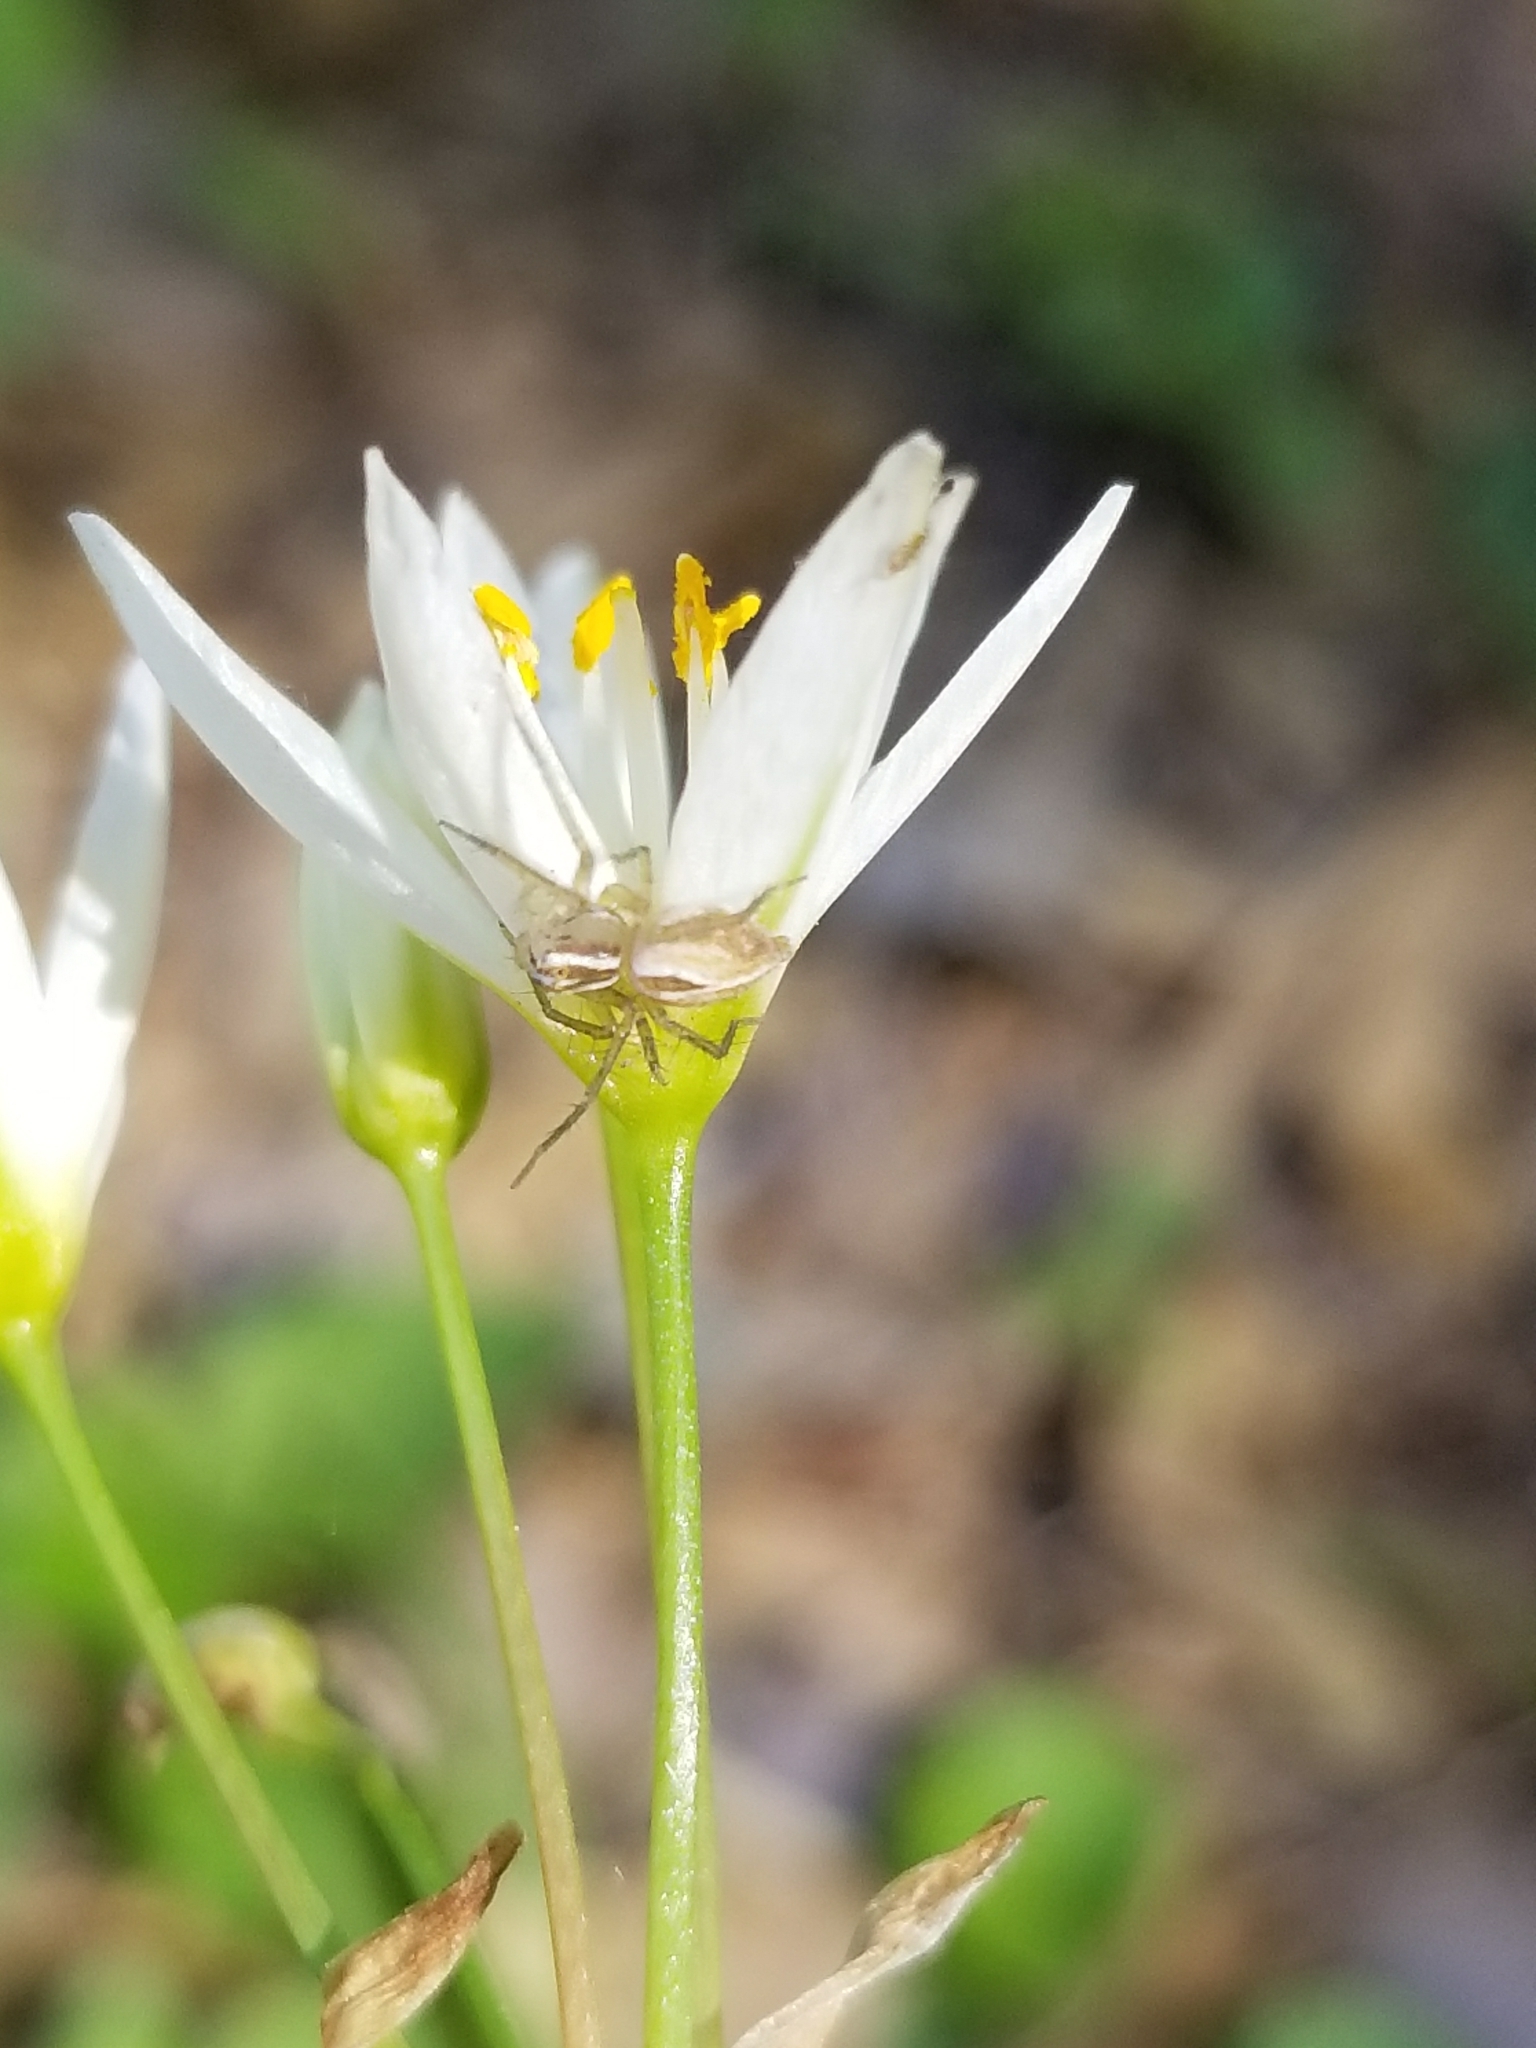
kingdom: Animalia
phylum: Arthropoda
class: Arachnida
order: Araneae
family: Oxyopidae
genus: Oxyopes
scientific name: Oxyopes salticus
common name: Lynx spiders
